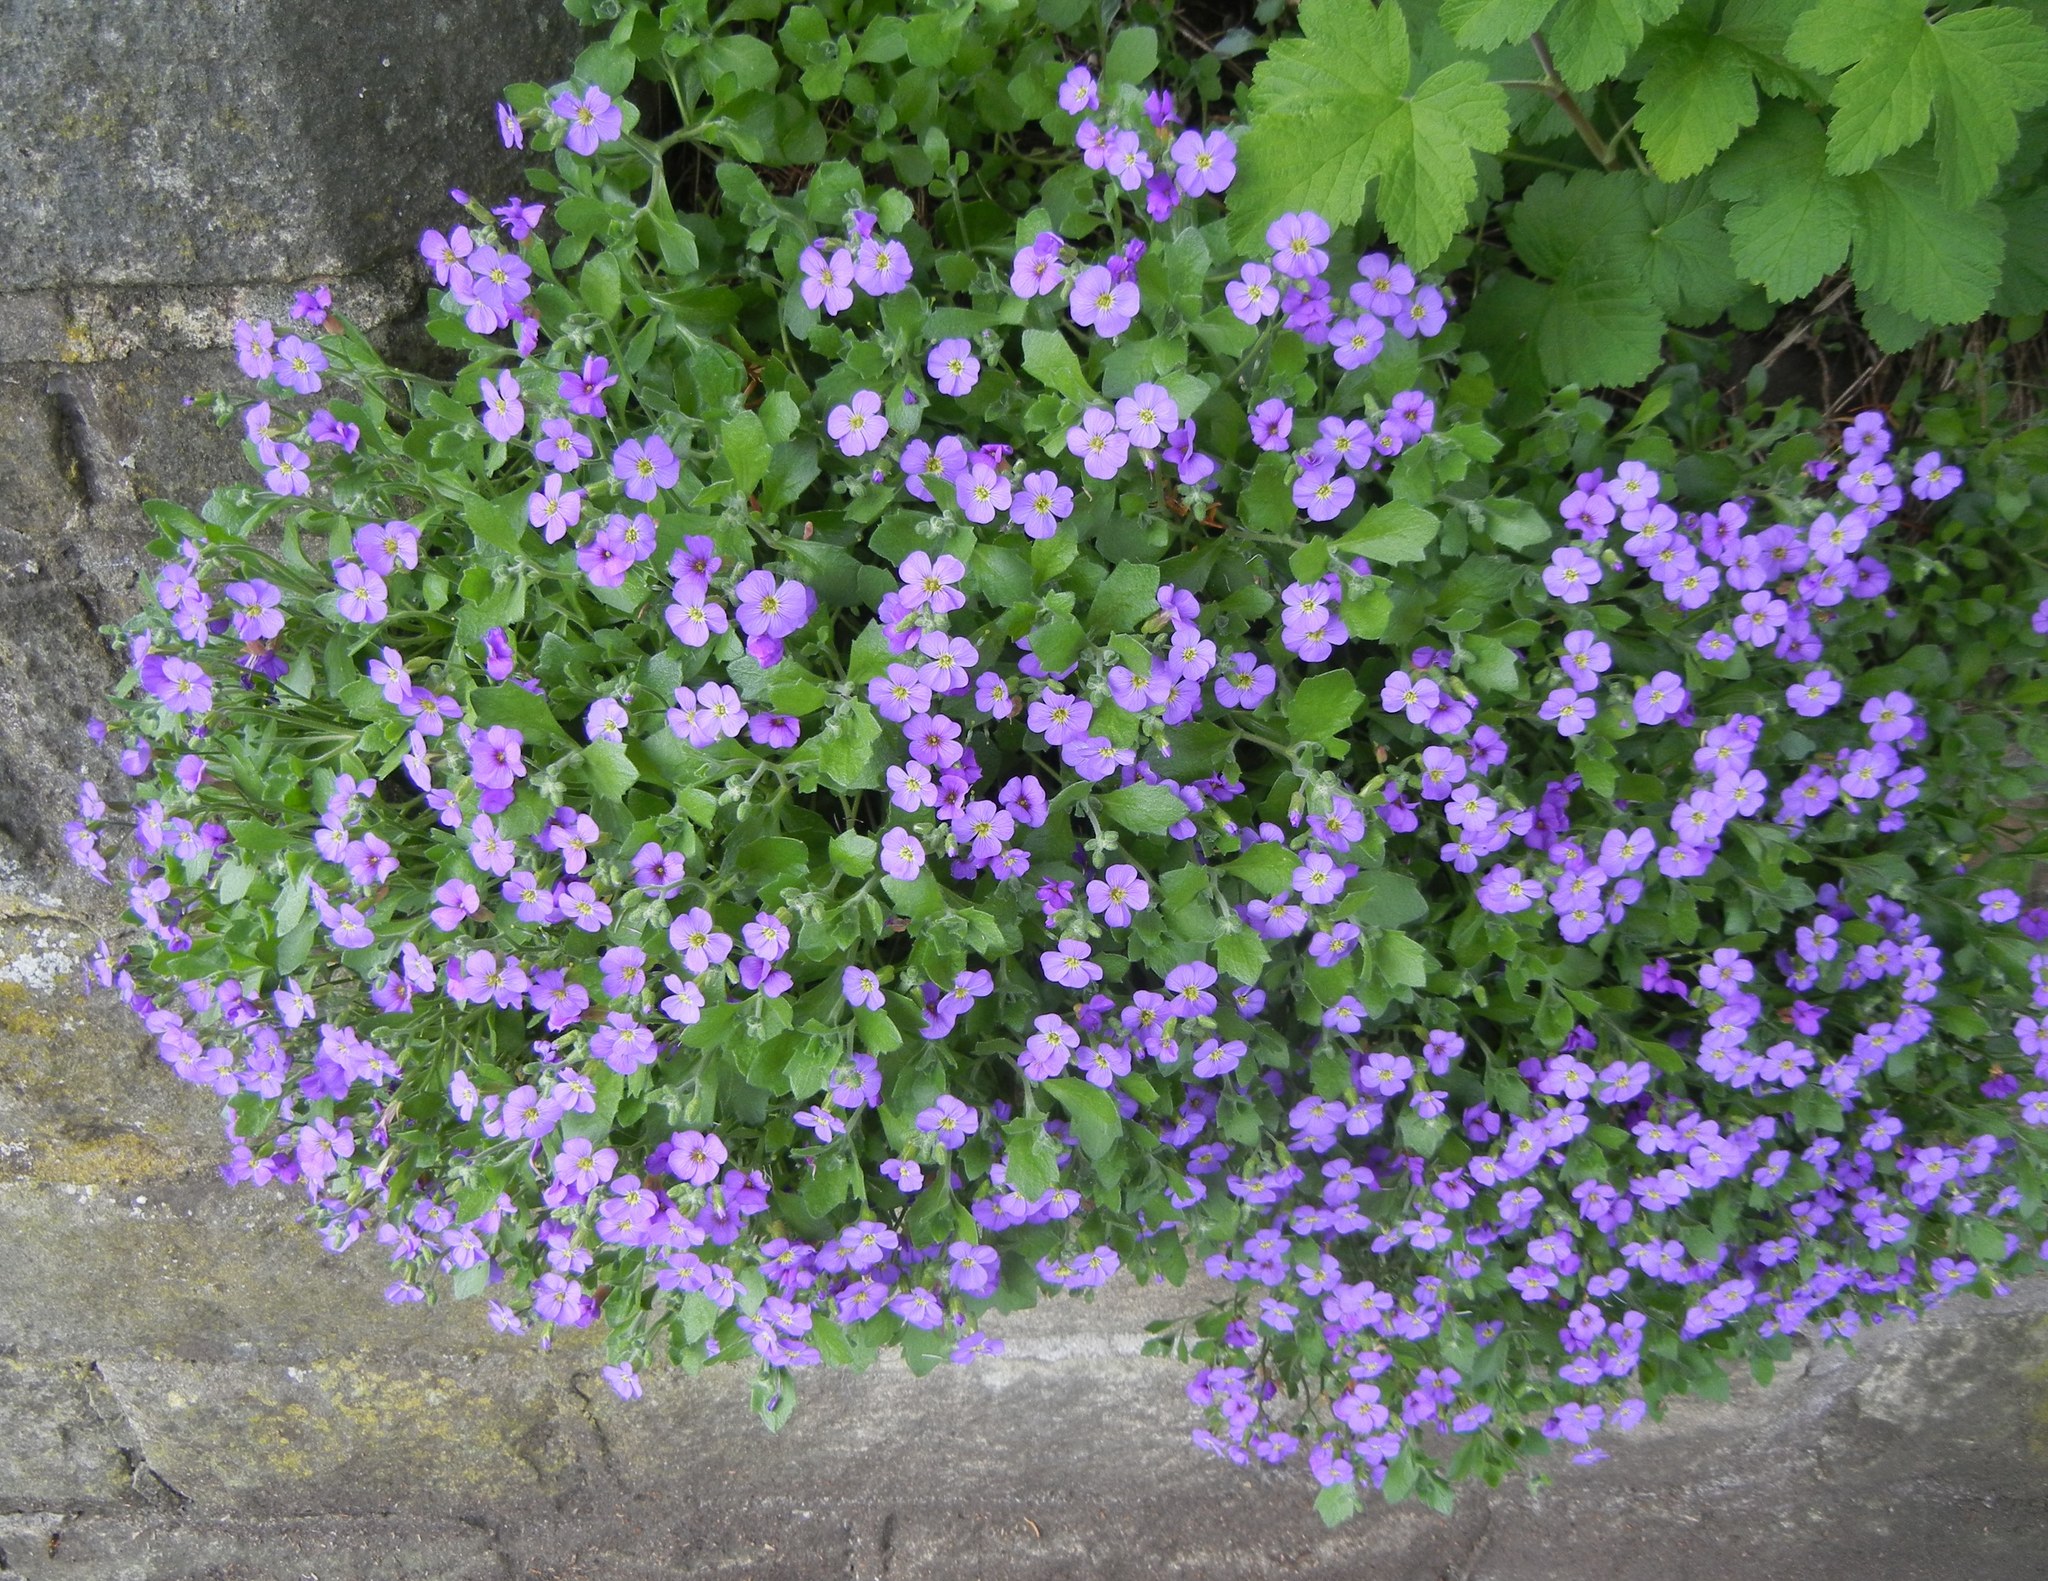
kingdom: Plantae
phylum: Tracheophyta
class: Magnoliopsida
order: Brassicales
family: Brassicaceae
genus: Aubrieta
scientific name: Aubrieta deltoidea
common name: Aubretia
